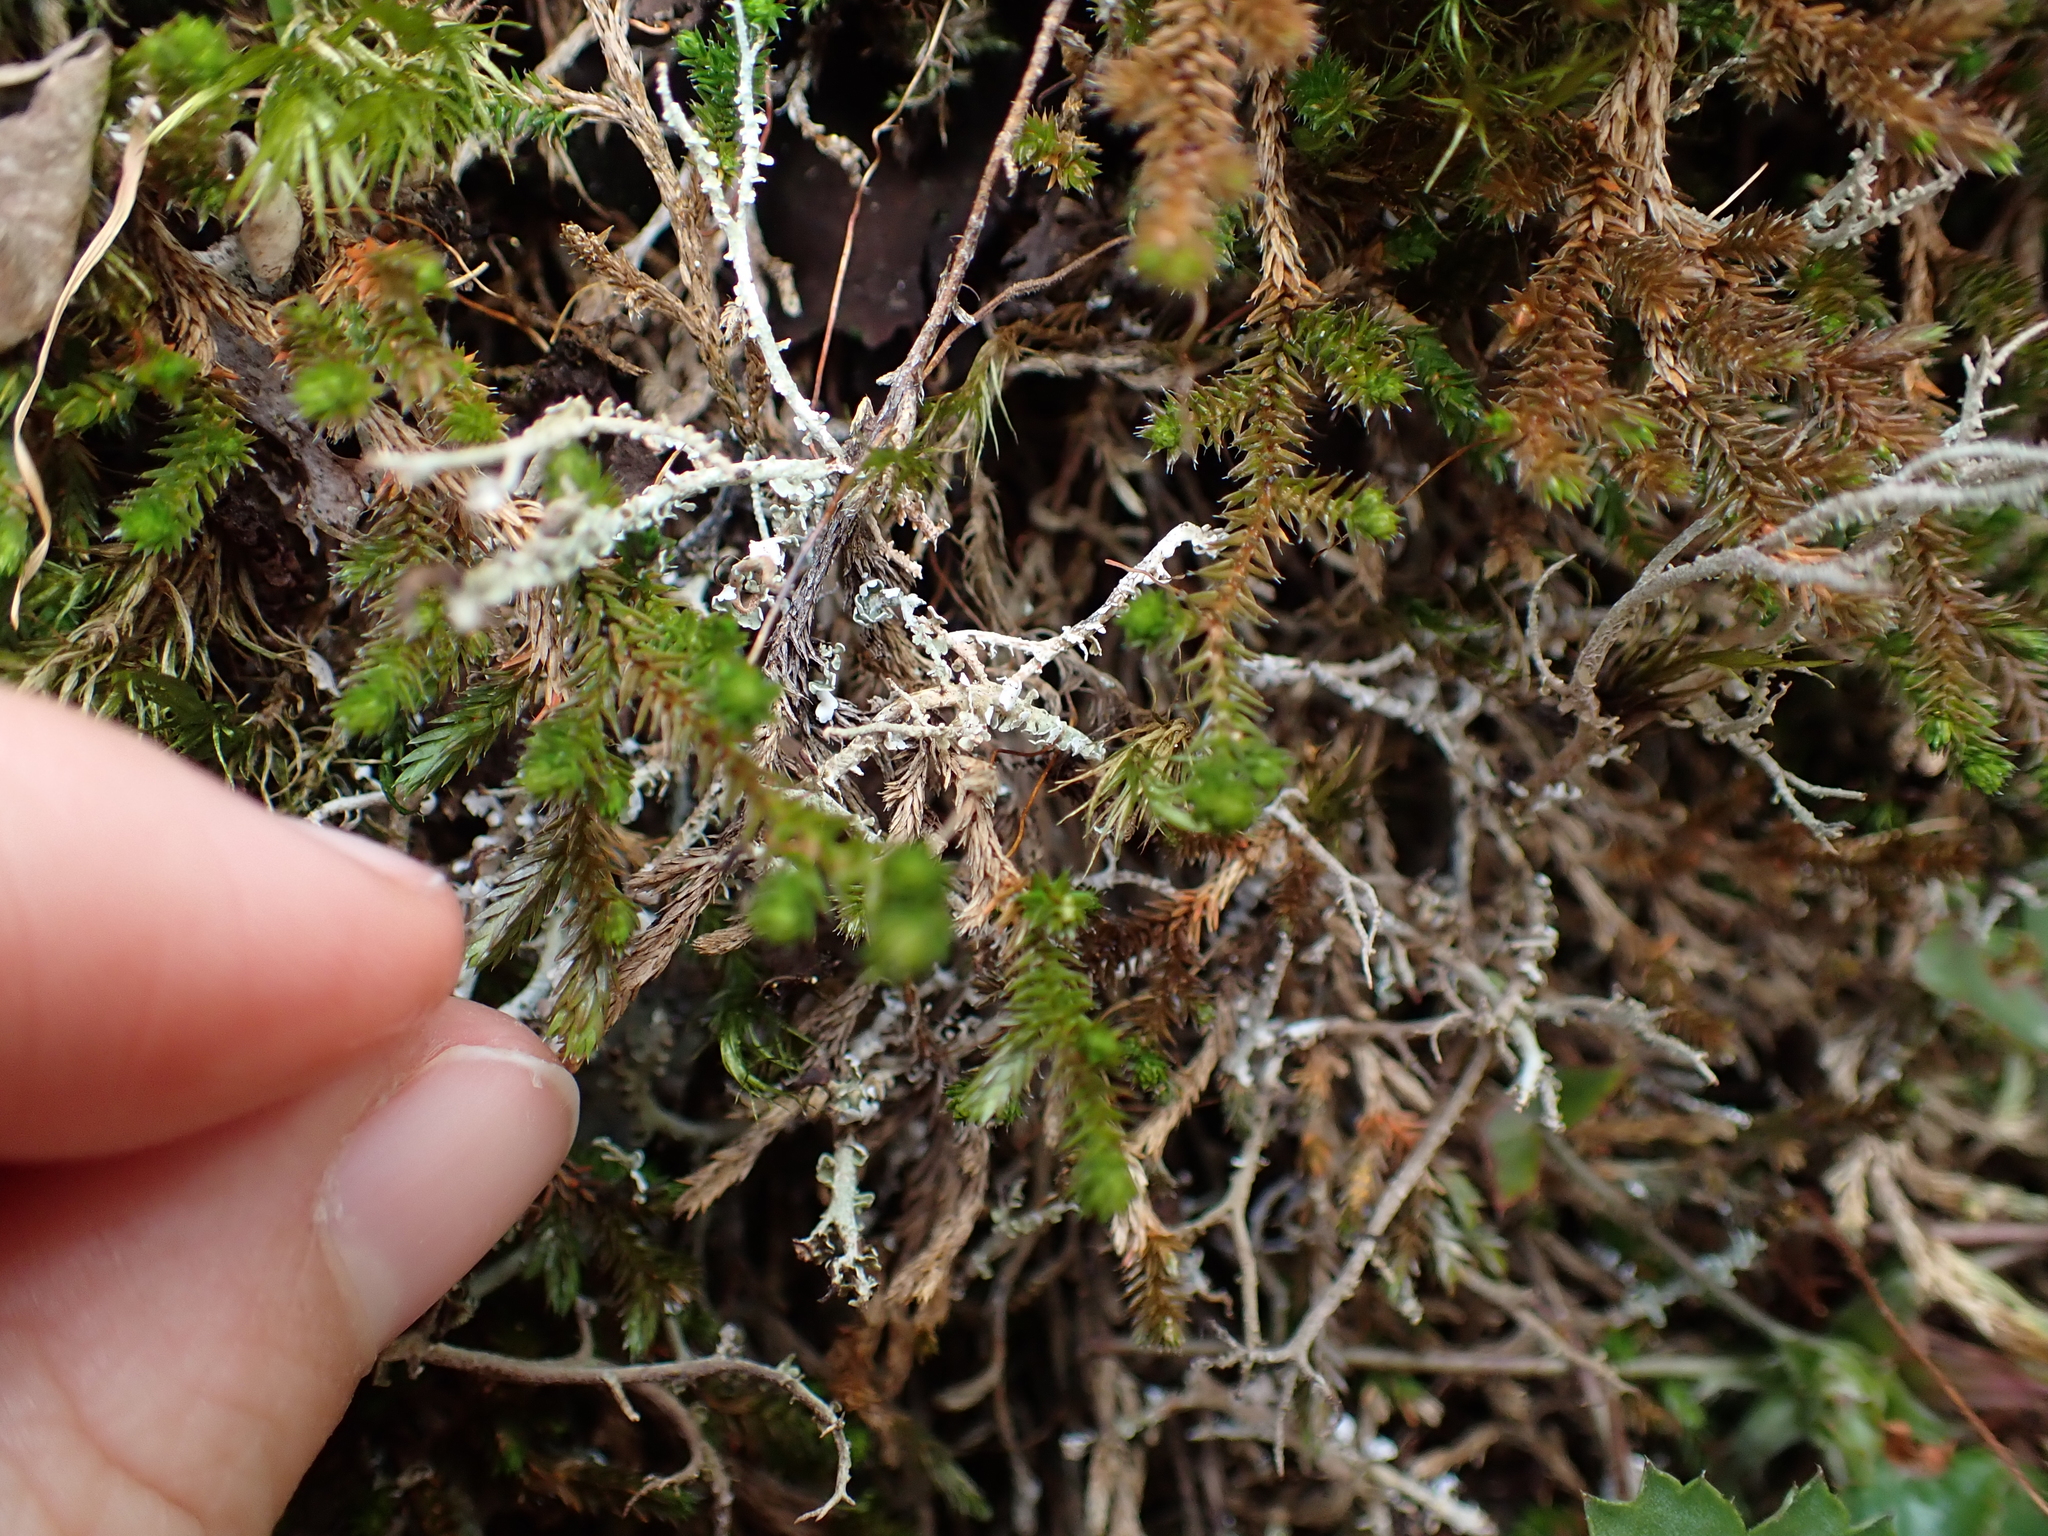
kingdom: Plantae
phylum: Tracheophyta
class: Lycopodiopsida
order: Selaginellales
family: Selaginellaceae
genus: Selaginella
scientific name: Selaginella wallacei
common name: Wallace's selaginella
